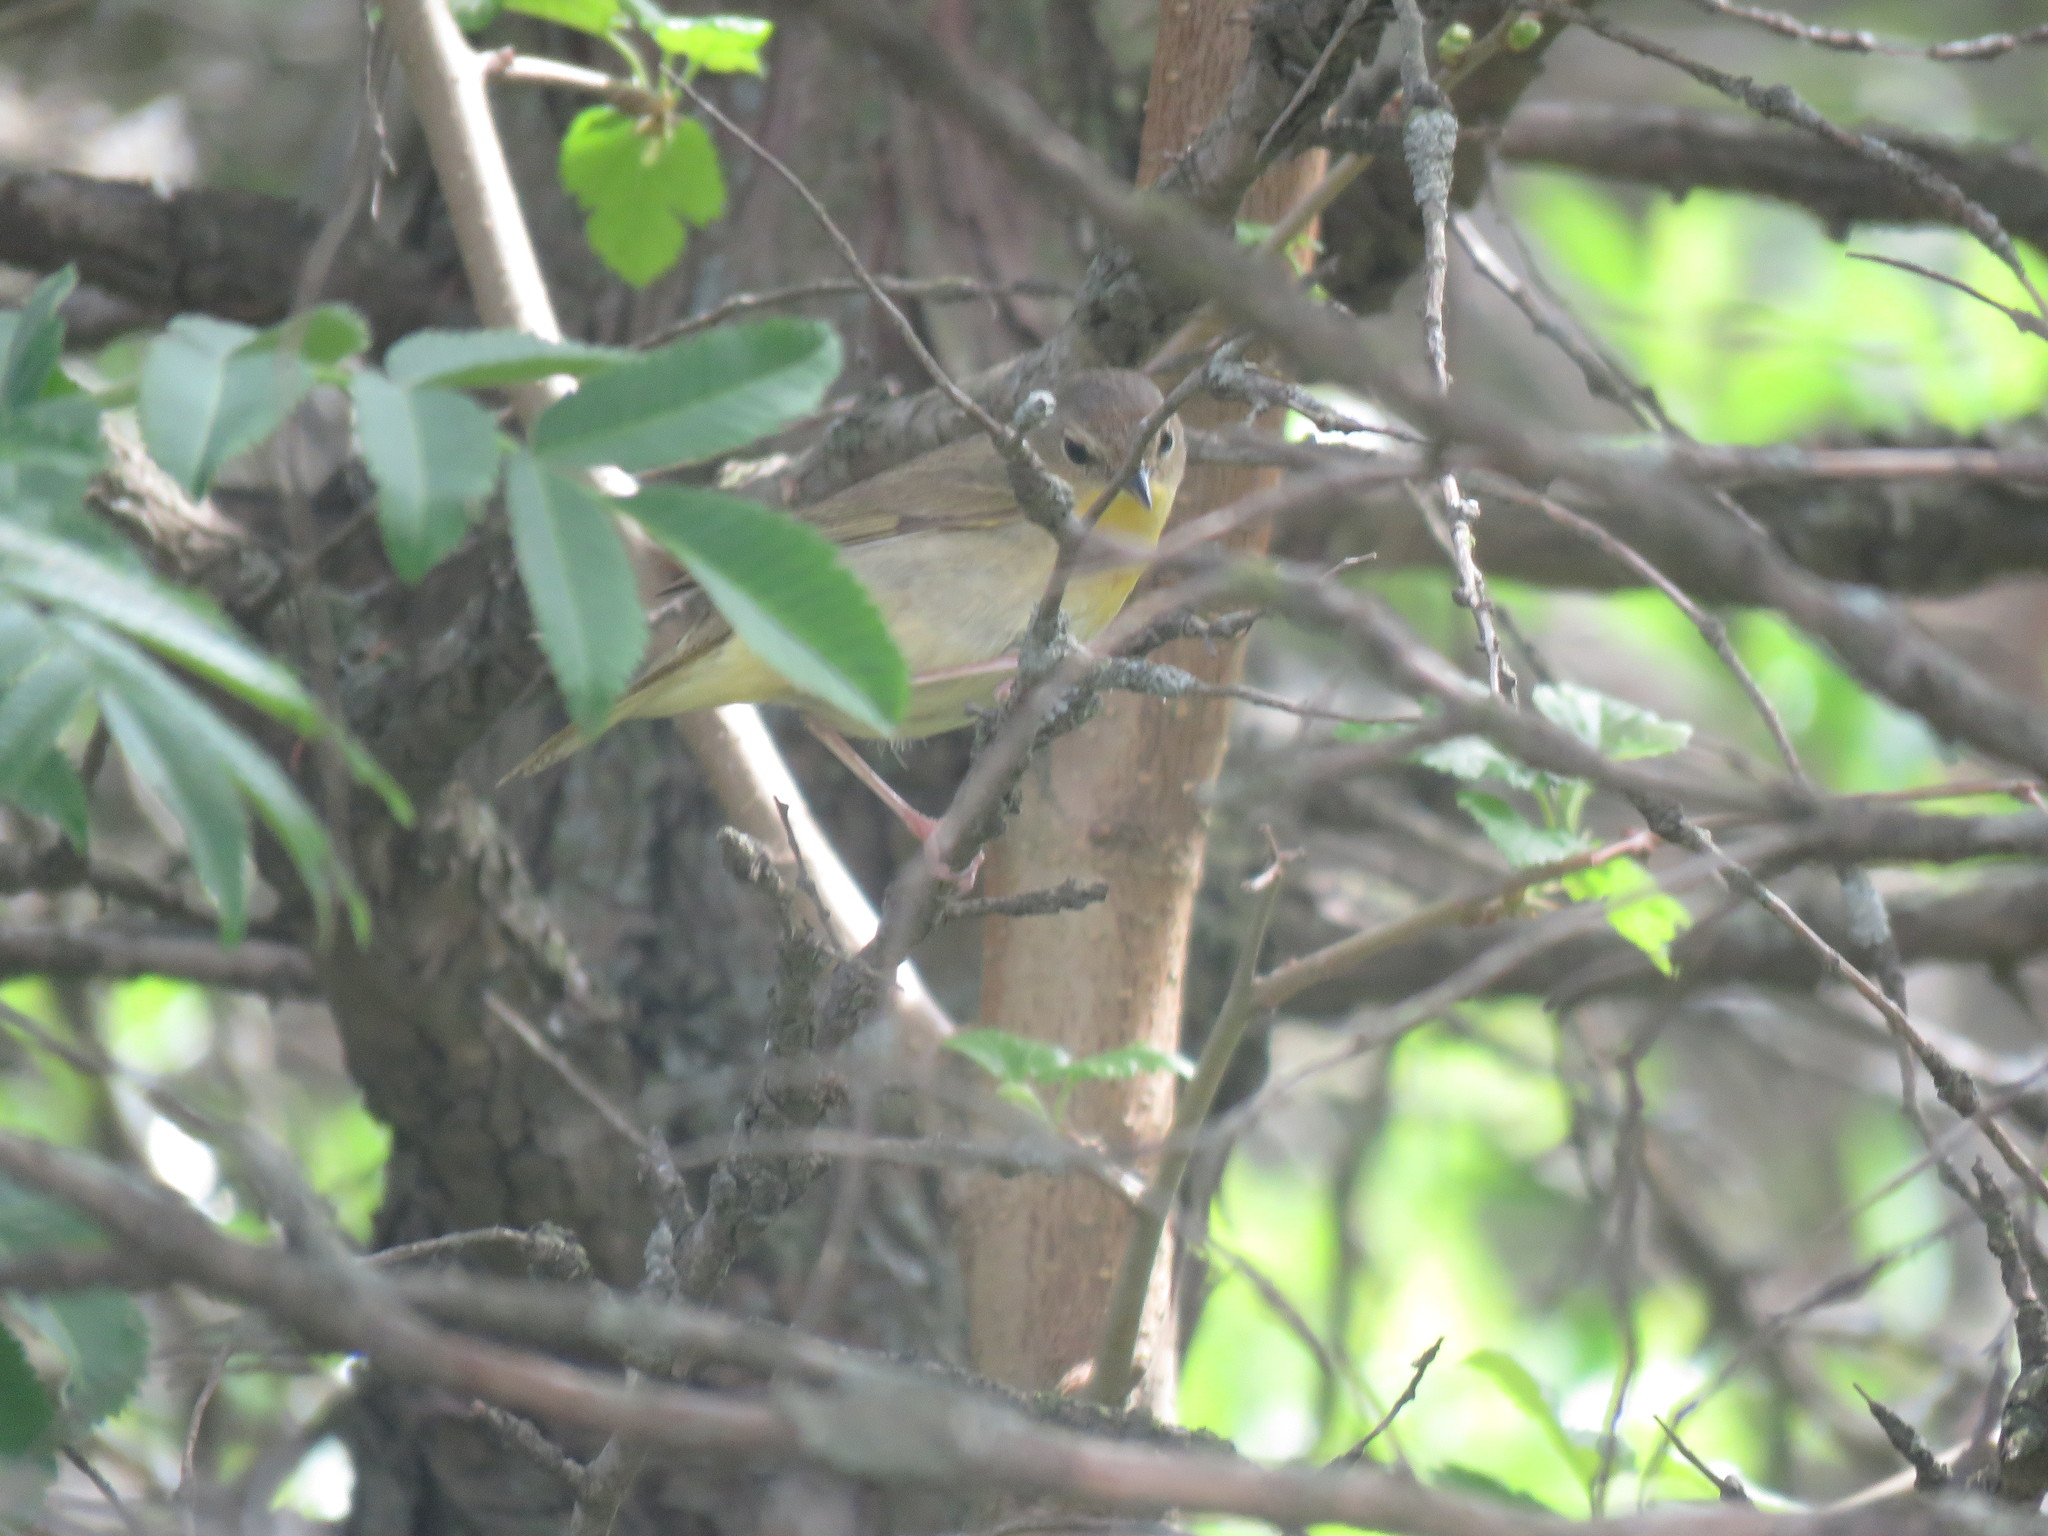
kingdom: Animalia
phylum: Chordata
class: Aves
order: Passeriformes
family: Parulidae
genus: Geothlypis
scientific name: Geothlypis trichas
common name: Common yellowthroat
